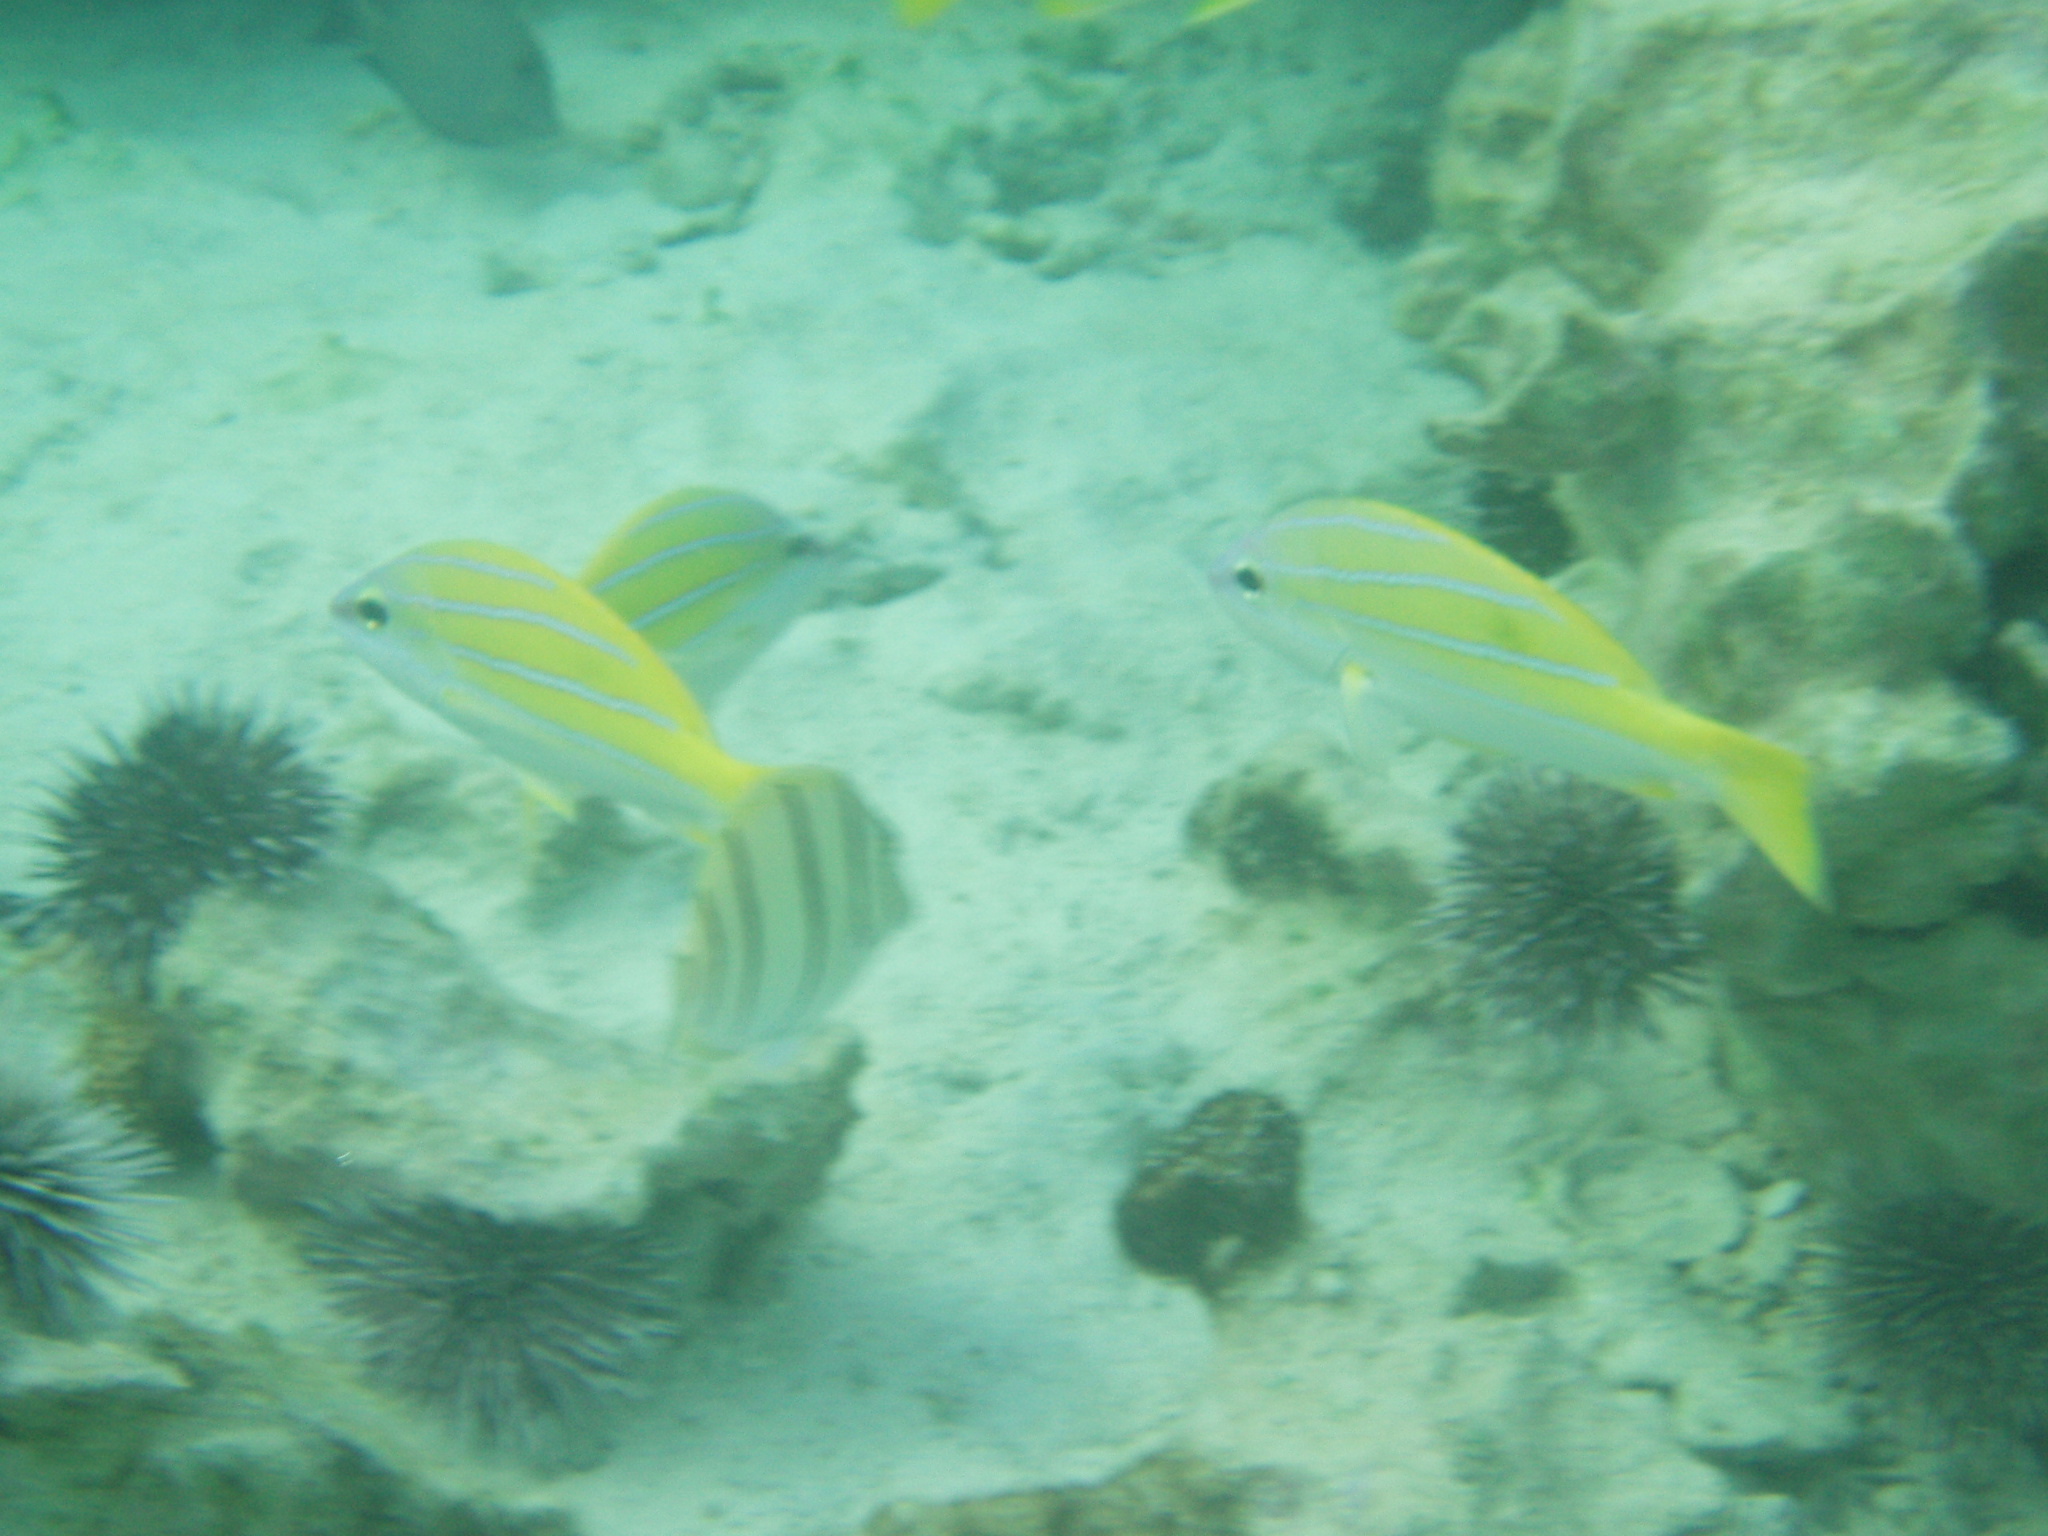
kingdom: Animalia
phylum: Chordata
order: Perciformes
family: Acanthuridae
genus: Acanthurus
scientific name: Acanthurus triostegus
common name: Convict surgeonfish
